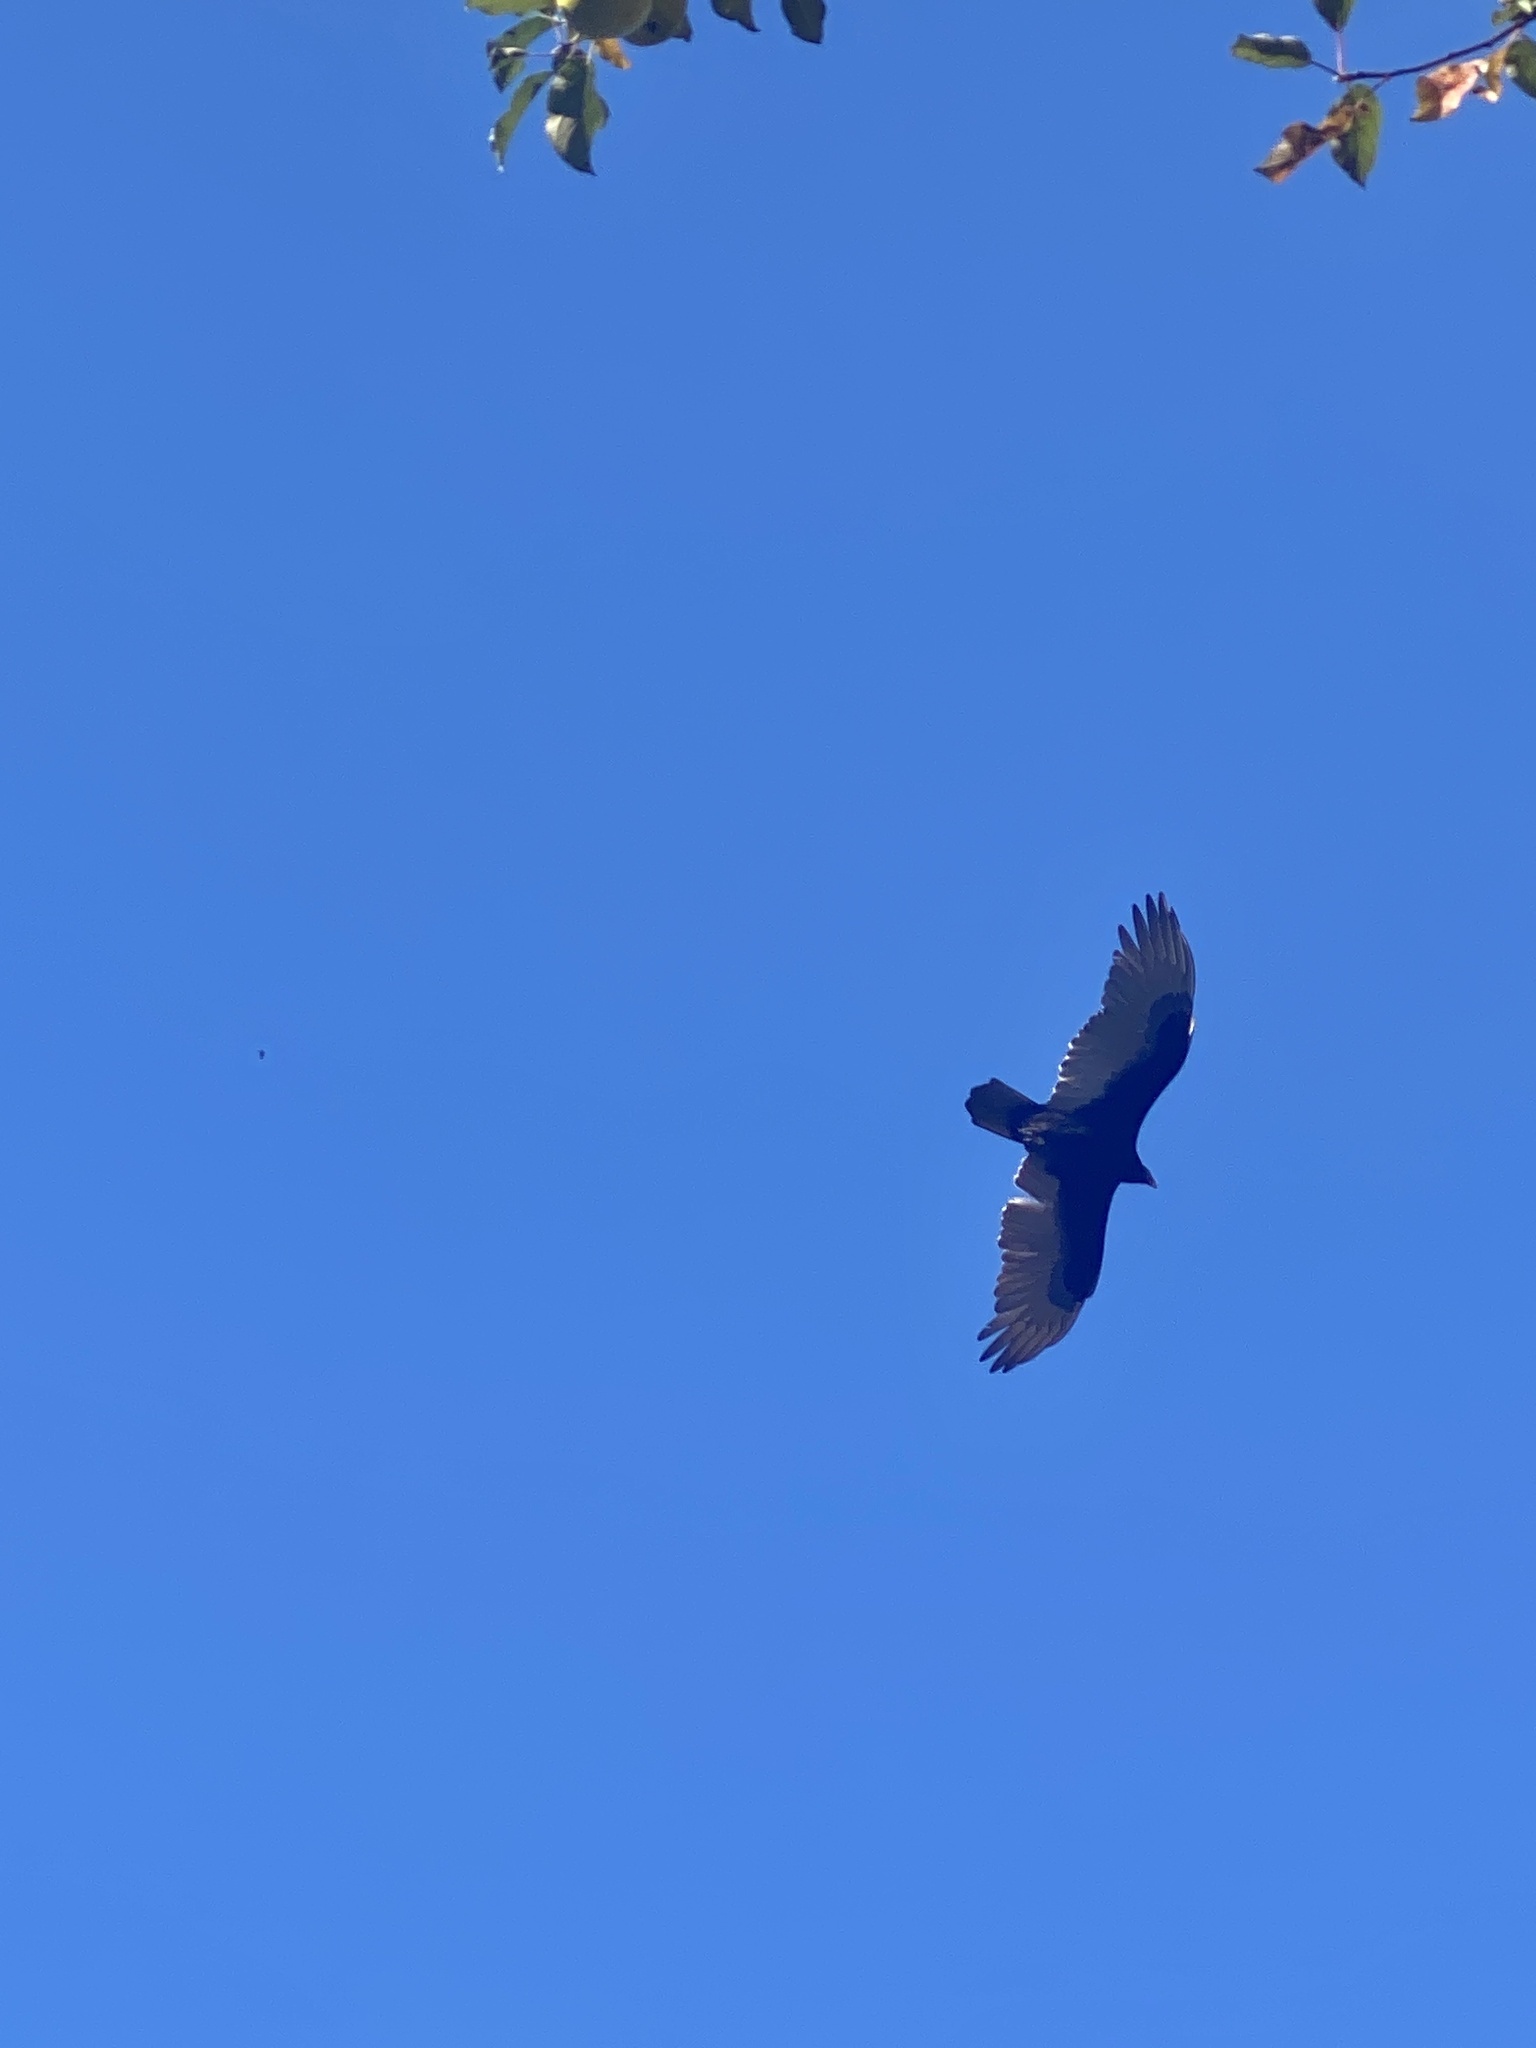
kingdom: Animalia
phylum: Chordata
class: Aves
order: Accipitriformes
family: Cathartidae
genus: Cathartes
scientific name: Cathartes aura
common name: Turkey vulture
